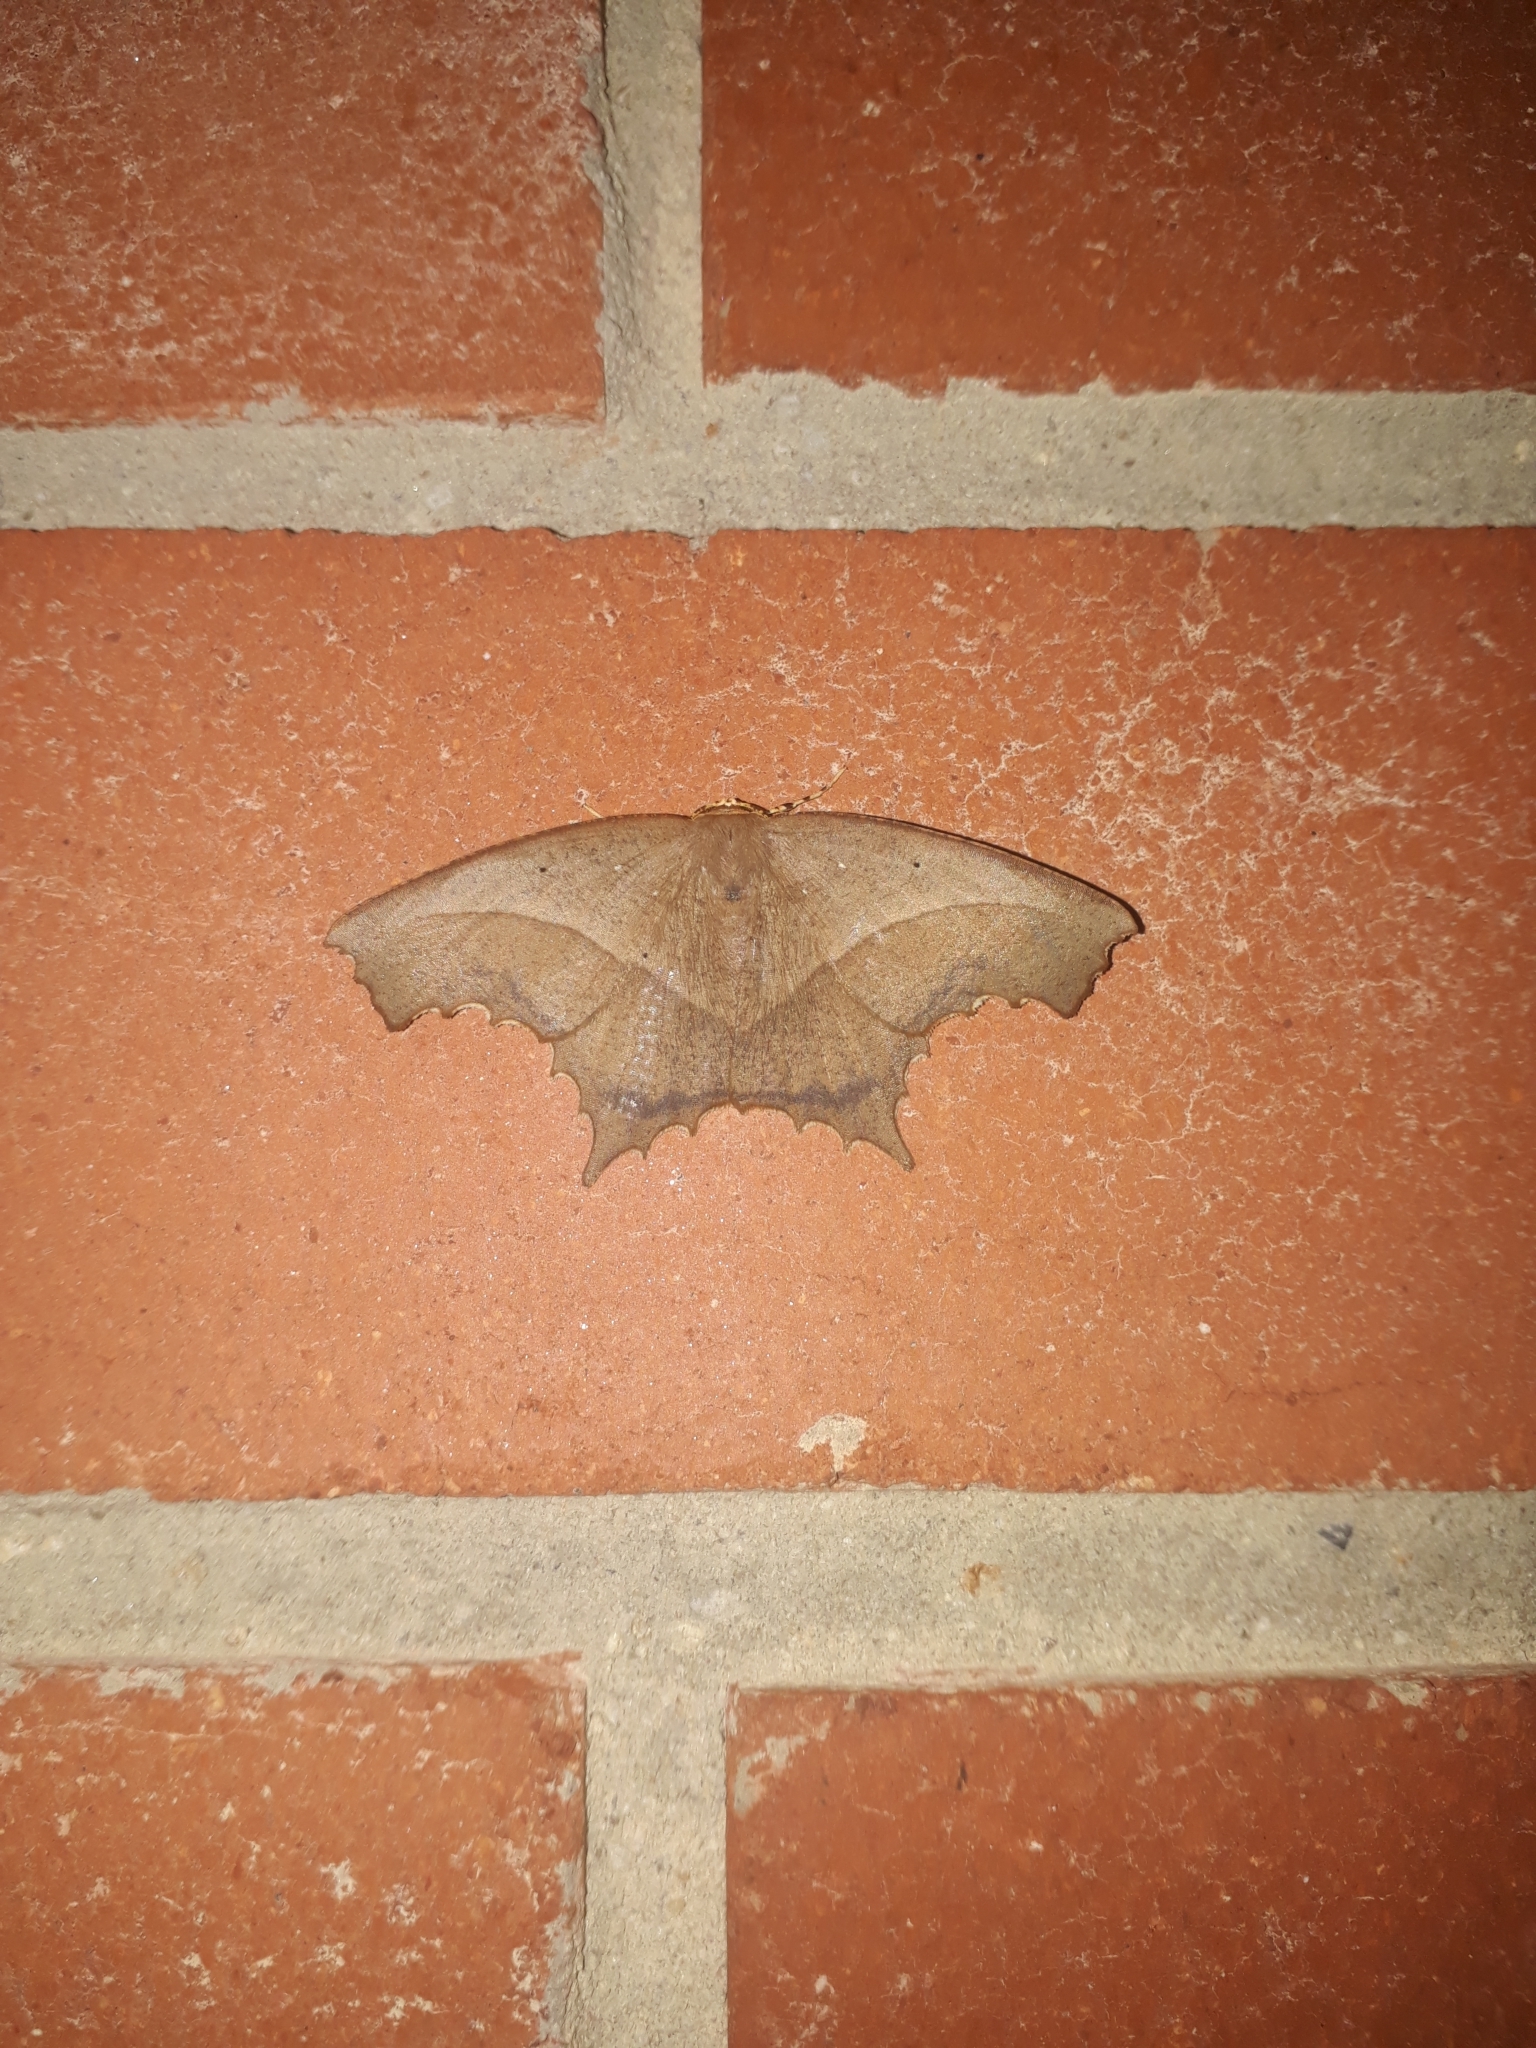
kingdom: Animalia
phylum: Arthropoda
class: Insecta
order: Lepidoptera
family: Geometridae
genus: Eutomopepla
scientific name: Eutomopepla rogenhoferi
